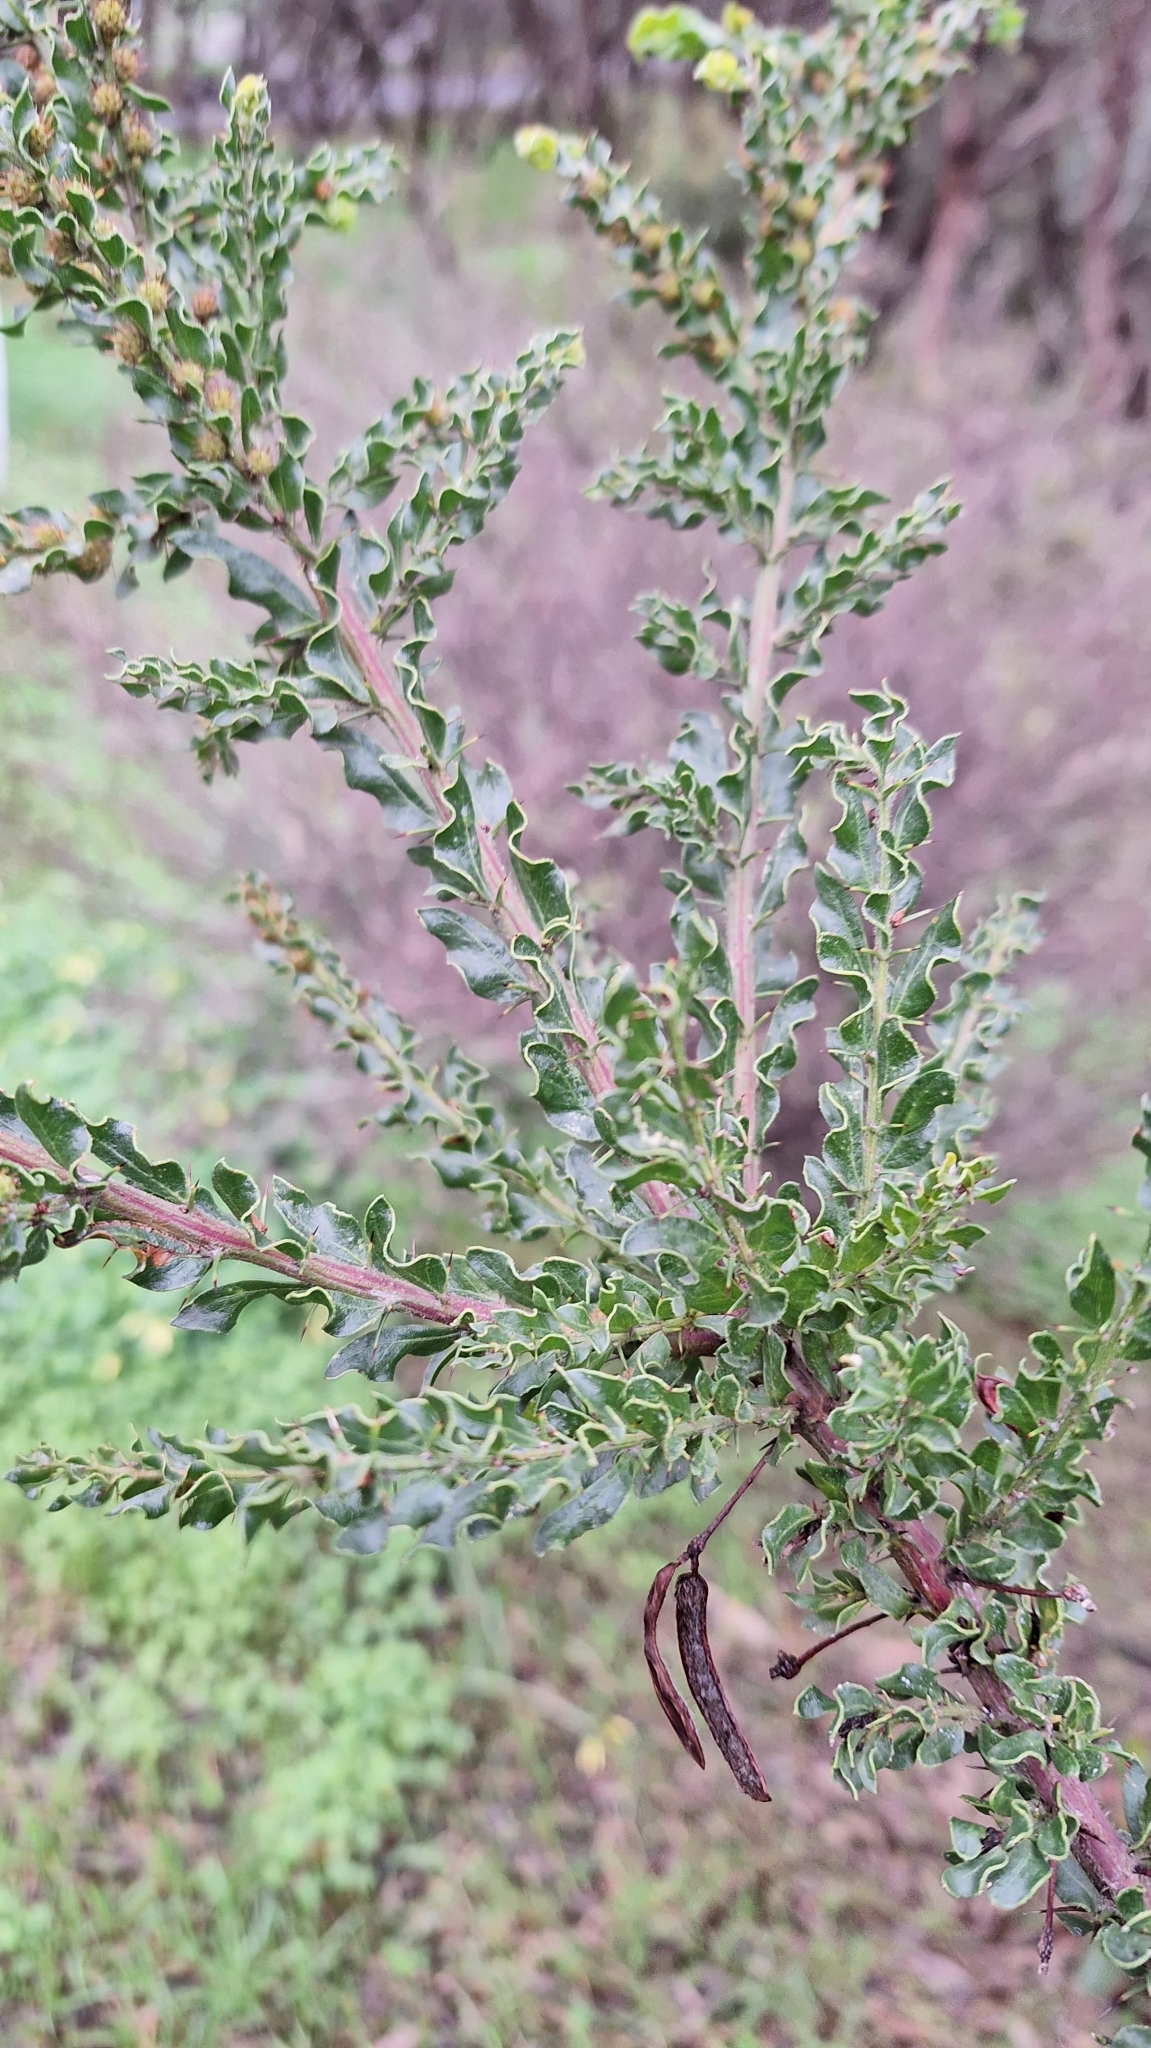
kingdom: Plantae
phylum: Tracheophyta
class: Magnoliopsida
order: Fabales
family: Fabaceae
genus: Acacia
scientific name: Acacia paradoxa
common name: Paradox acacia
